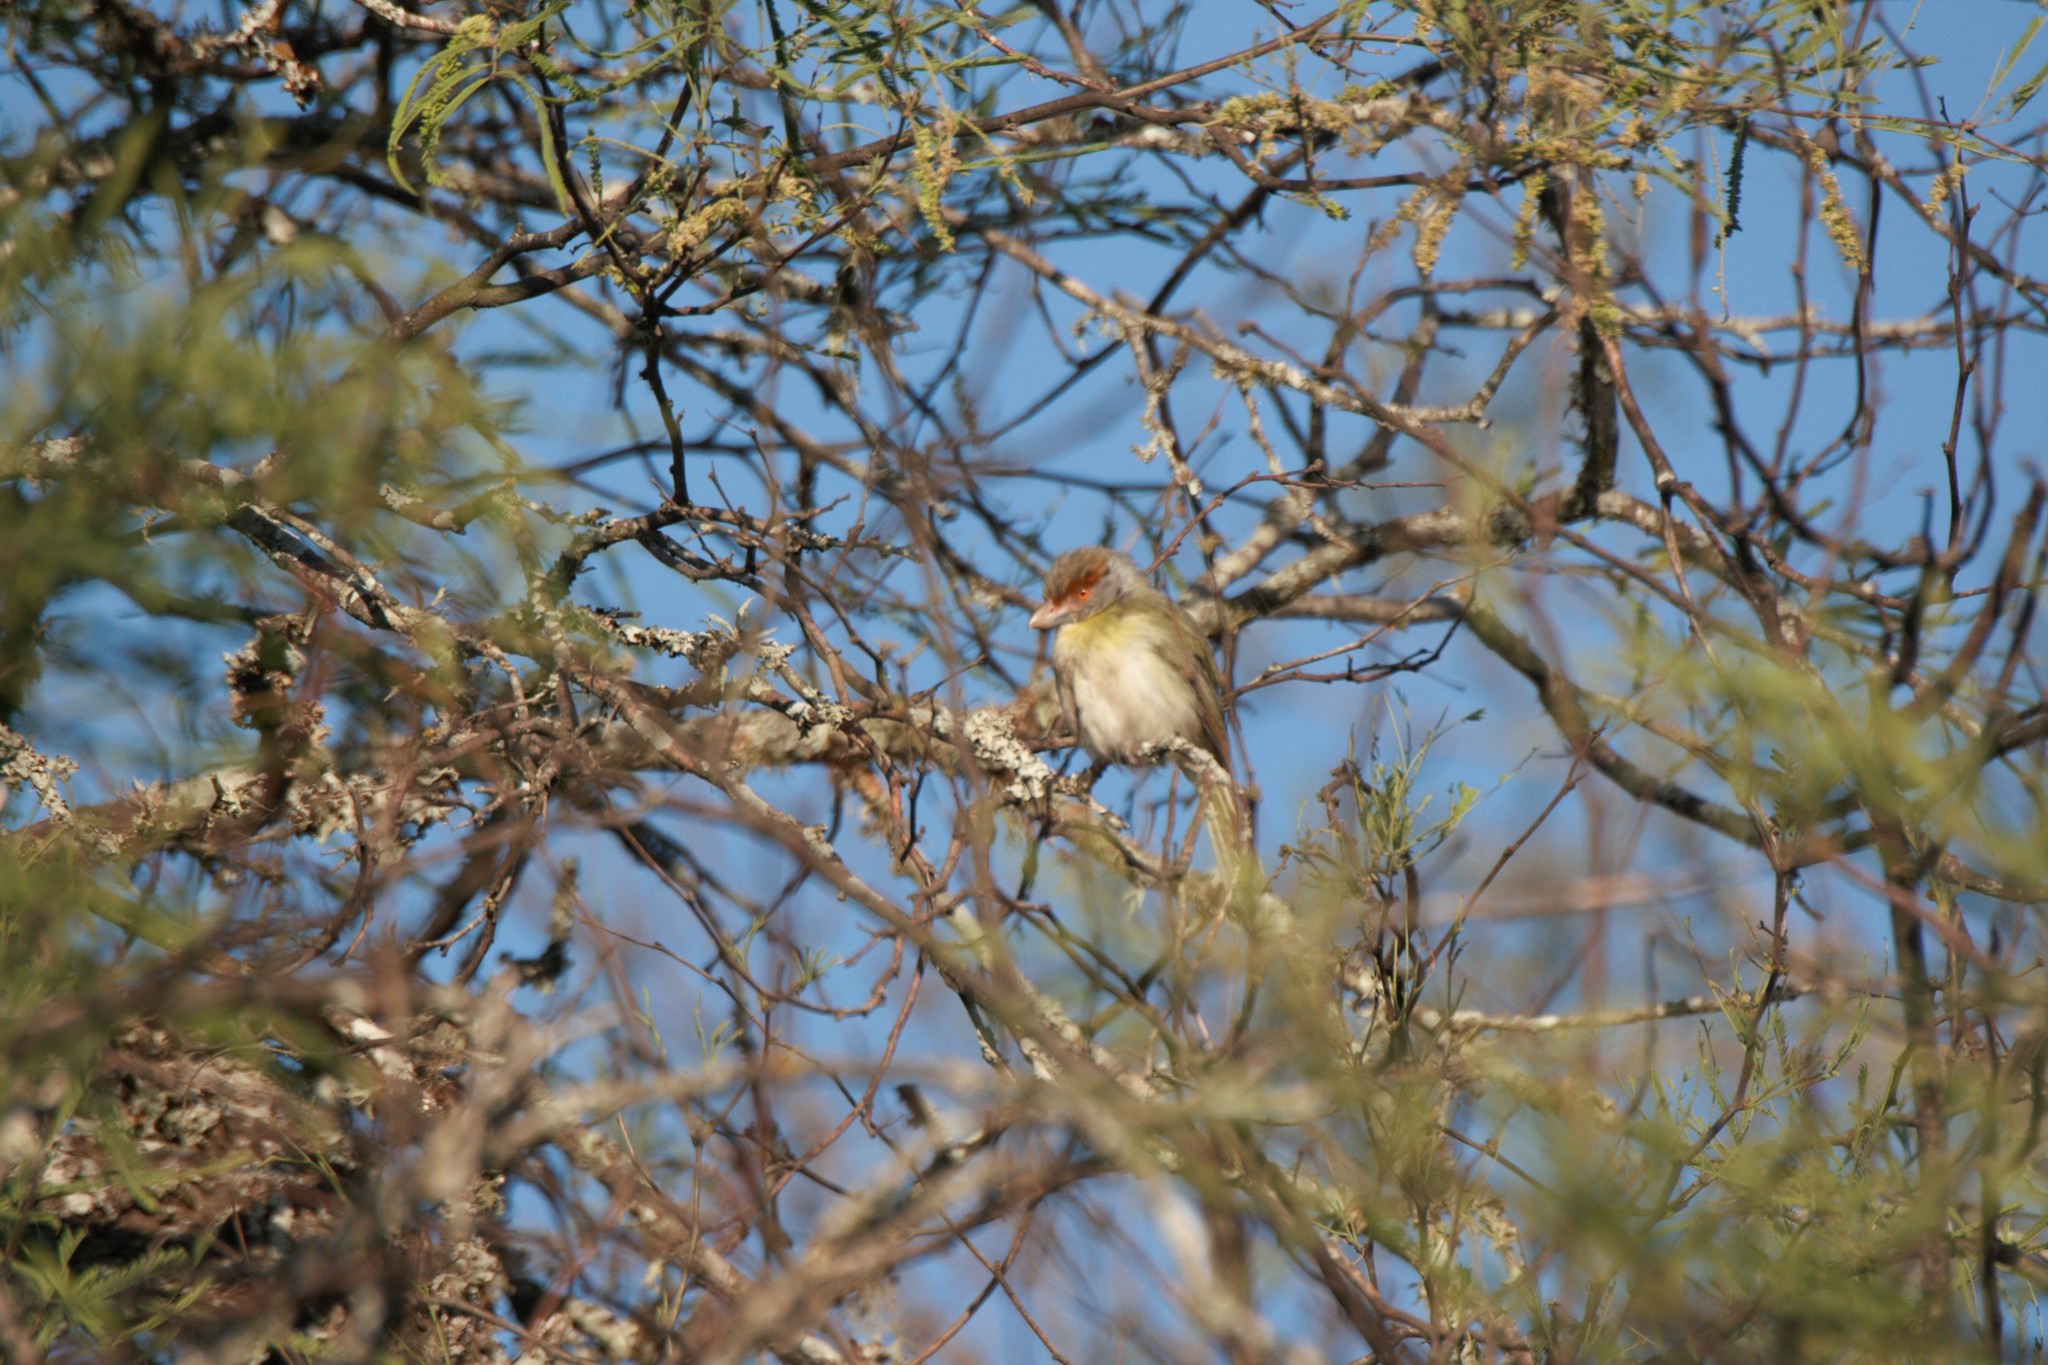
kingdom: Animalia
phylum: Chordata
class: Aves
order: Passeriformes
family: Vireonidae
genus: Cyclarhis
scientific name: Cyclarhis gujanensis
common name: Rufous-browed peppershrike
